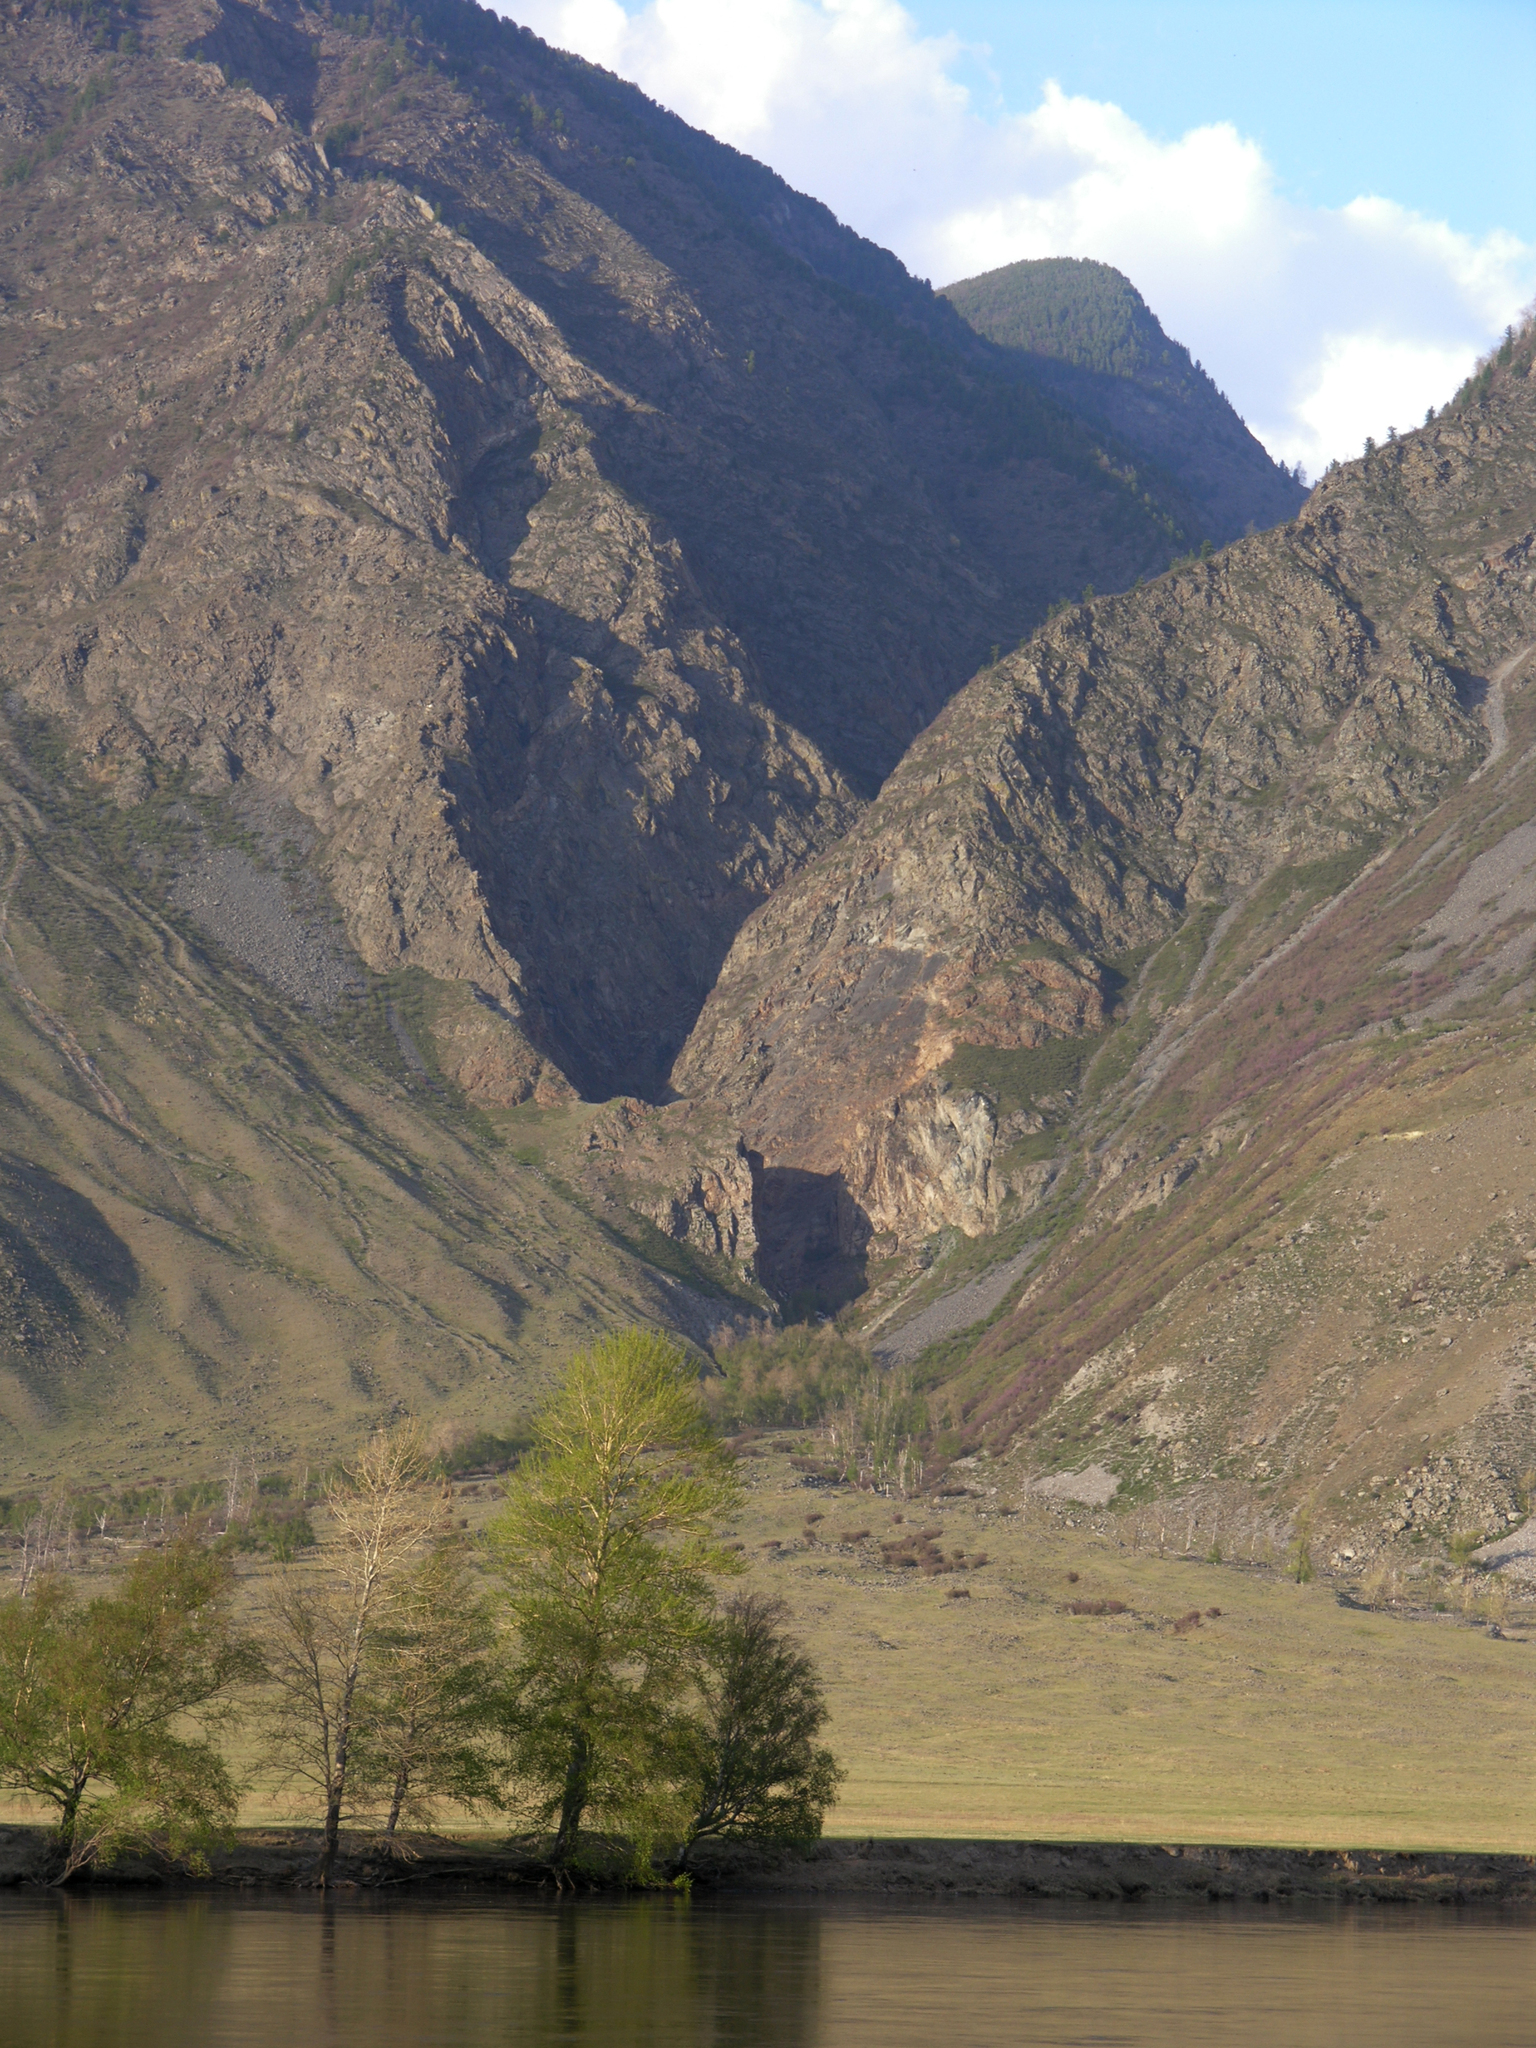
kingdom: Plantae
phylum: Tracheophyta
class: Magnoliopsida
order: Malpighiales
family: Salicaceae
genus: Populus
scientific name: Populus laurifolia
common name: Laurel-leaf poplar
